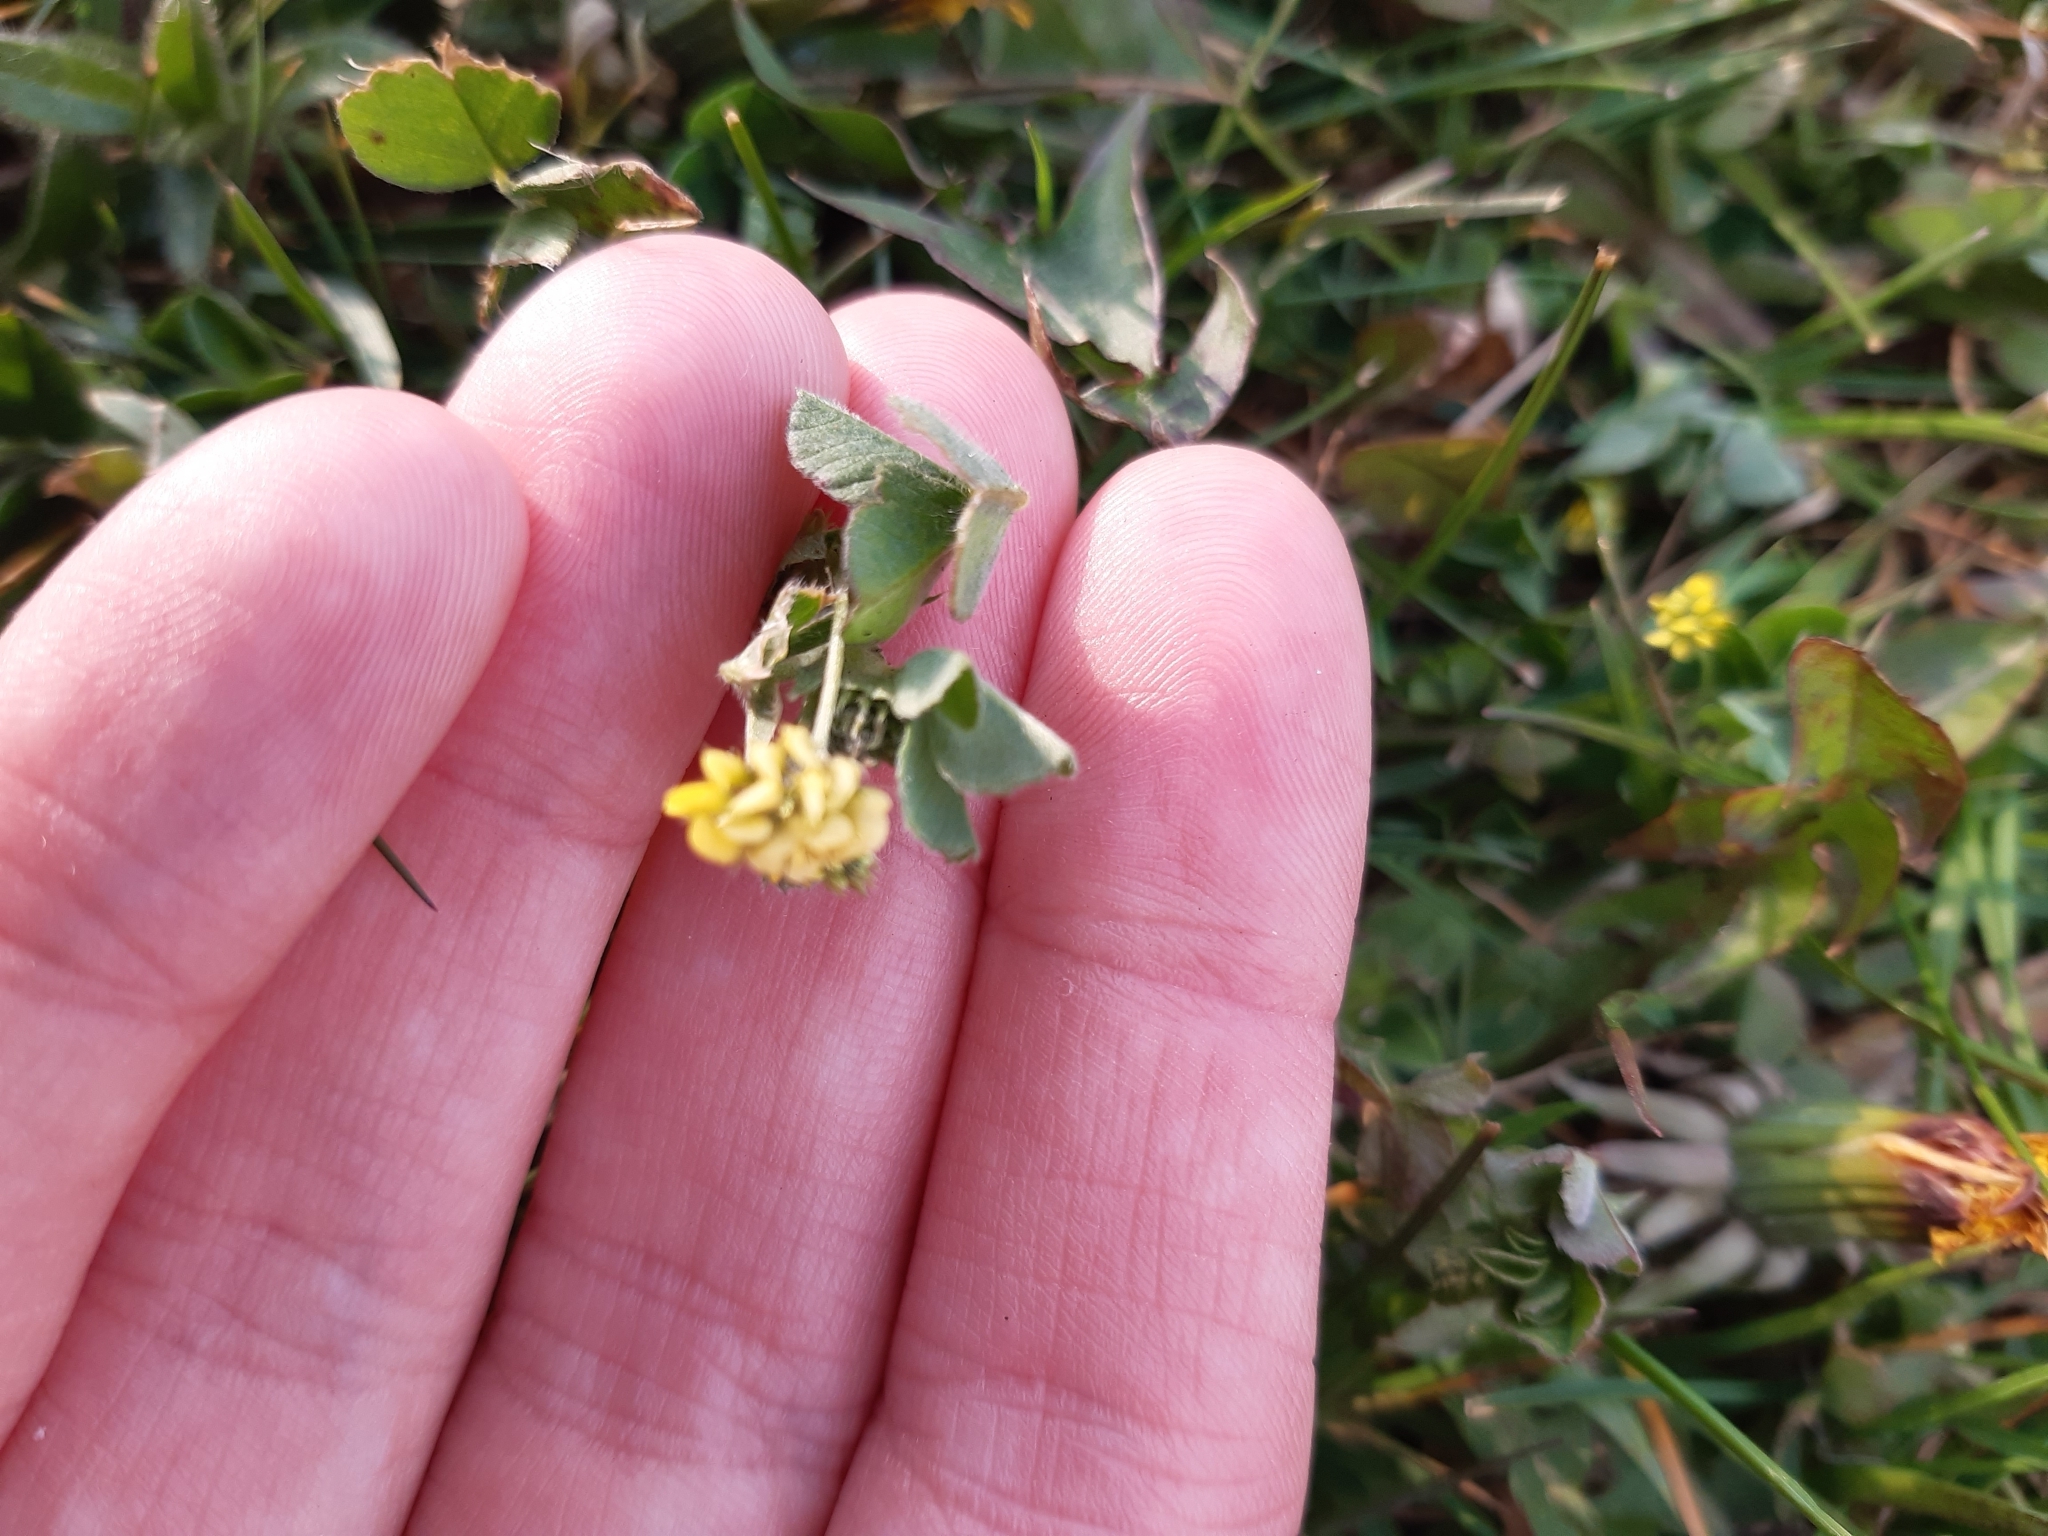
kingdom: Plantae
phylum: Tracheophyta
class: Magnoliopsida
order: Fabales
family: Fabaceae
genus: Medicago
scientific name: Medicago lupulina
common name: Black medick
